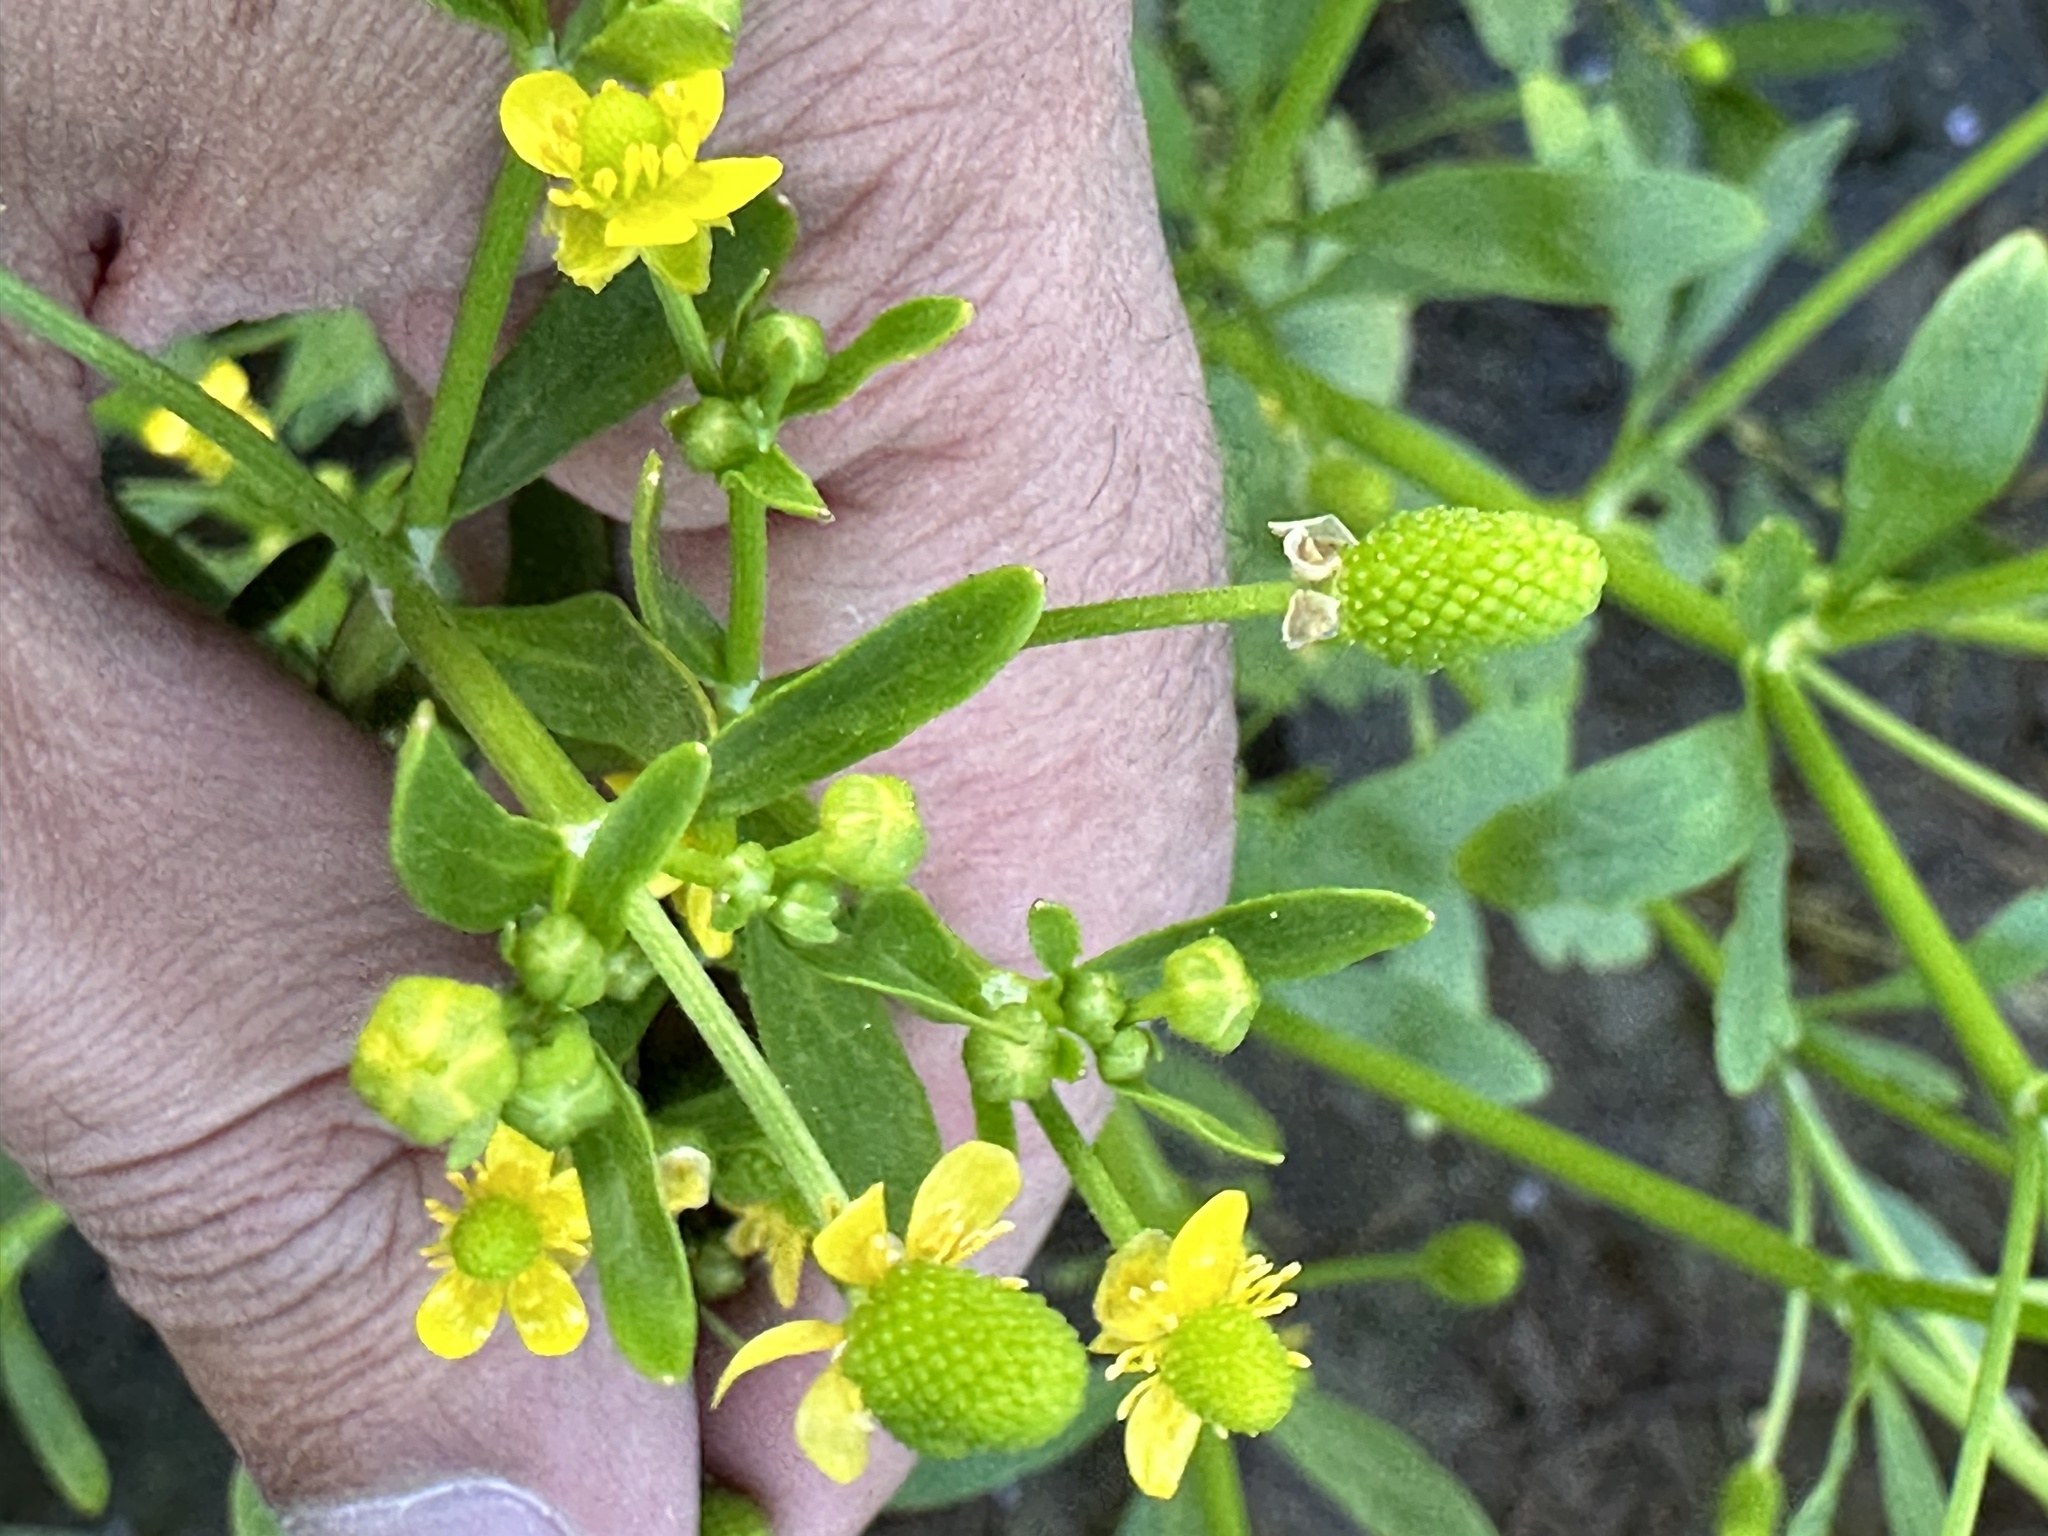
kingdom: Plantae
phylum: Tracheophyta
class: Magnoliopsida
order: Ranunculales
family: Ranunculaceae
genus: Ranunculus
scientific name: Ranunculus sceleratus
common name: Celery-leaved buttercup
